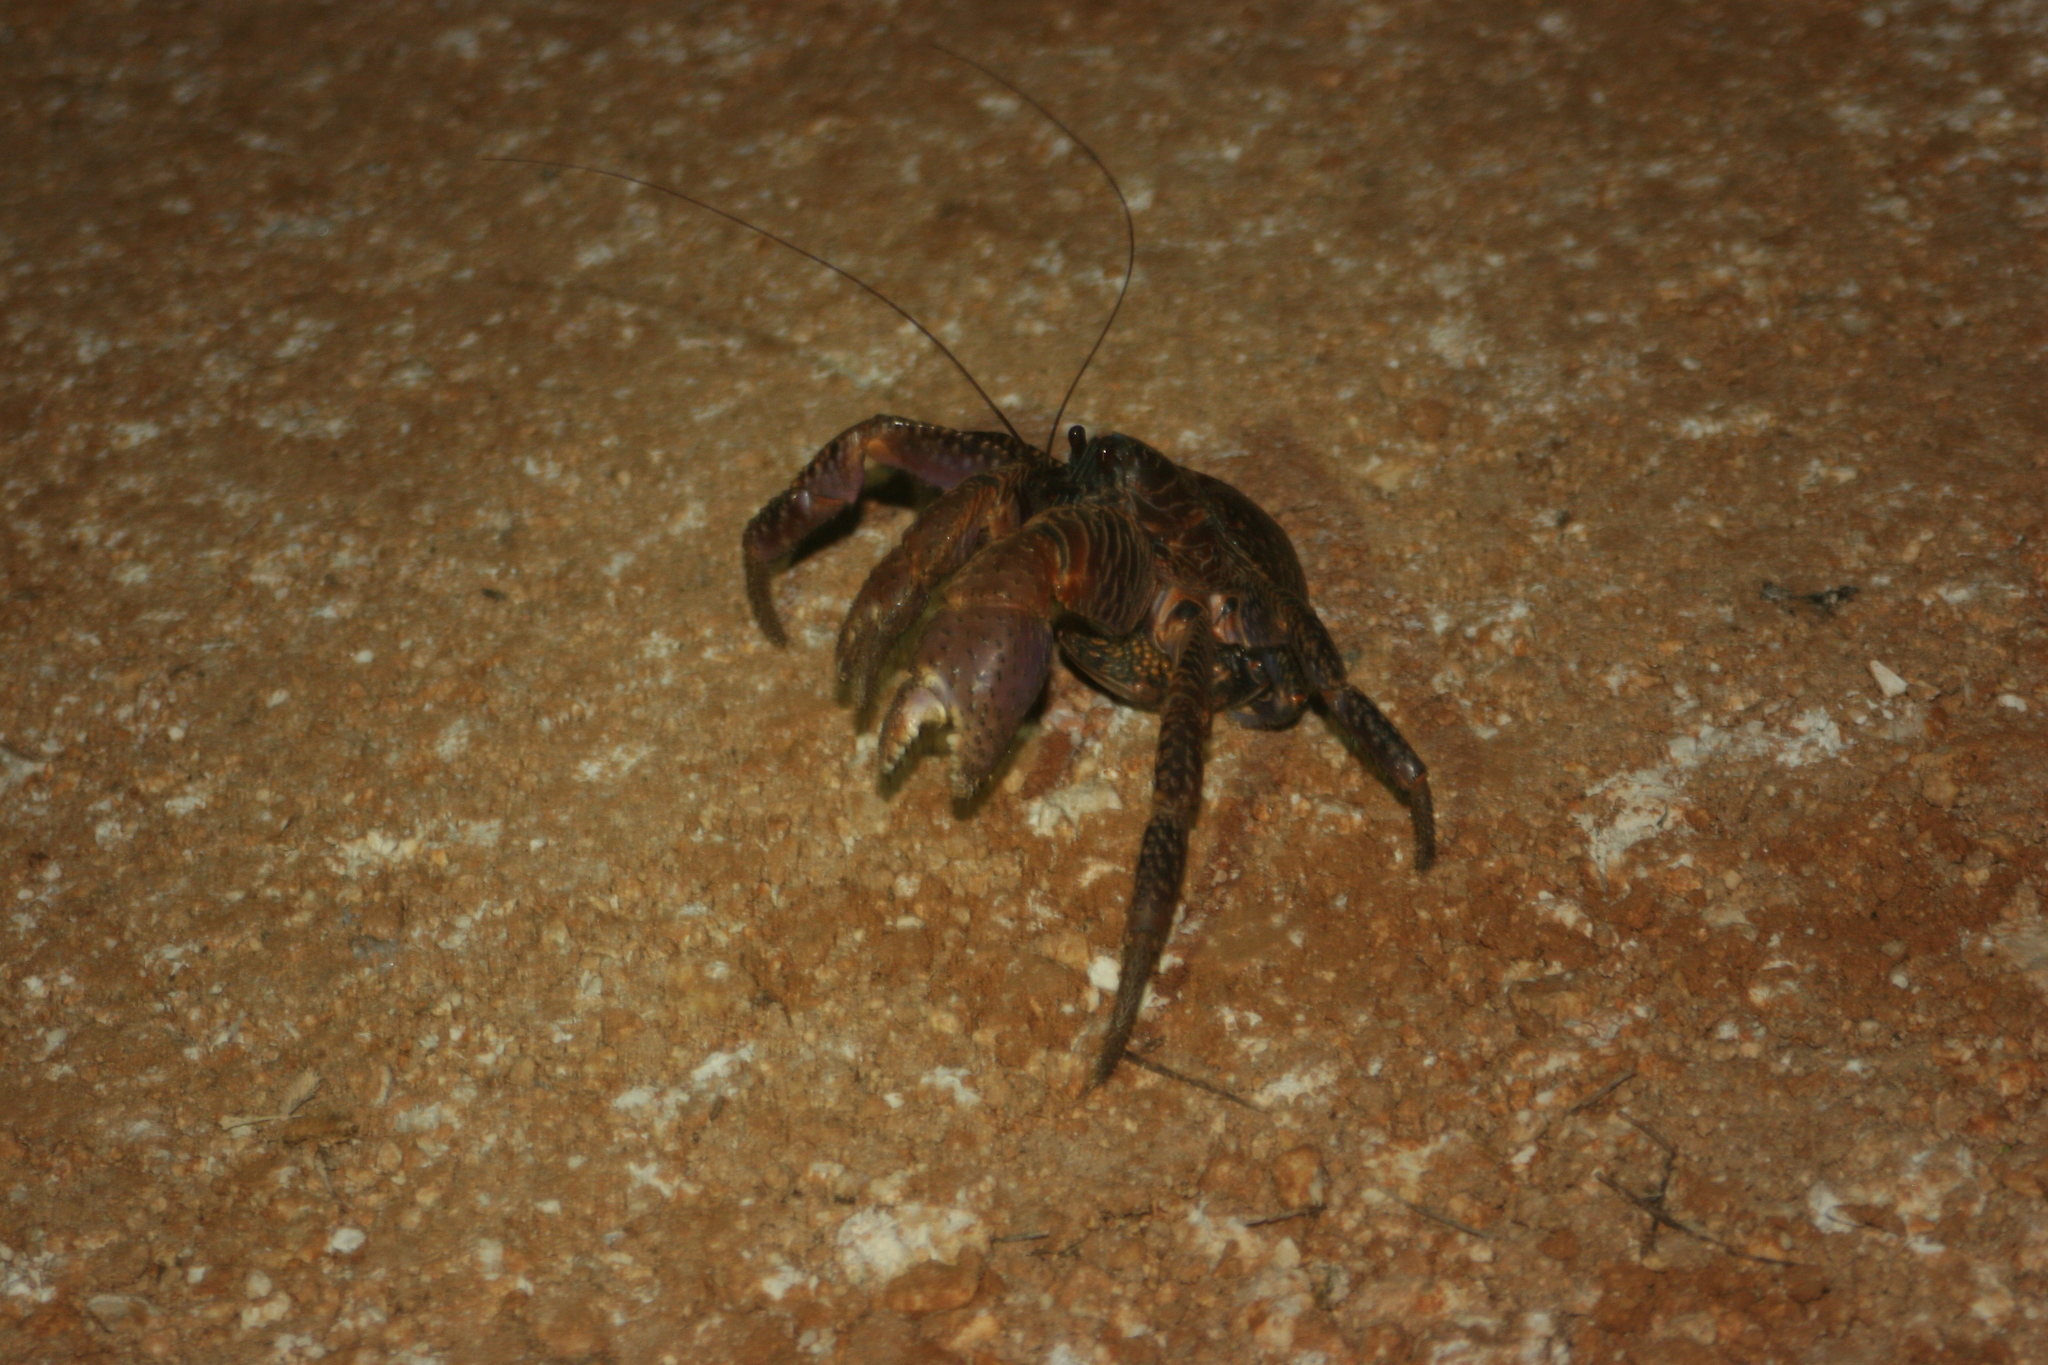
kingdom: Animalia
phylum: Arthropoda
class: Malacostraca
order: Decapoda
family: Coenobitidae
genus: Birgus
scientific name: Birgus latro
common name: Coconut crab
